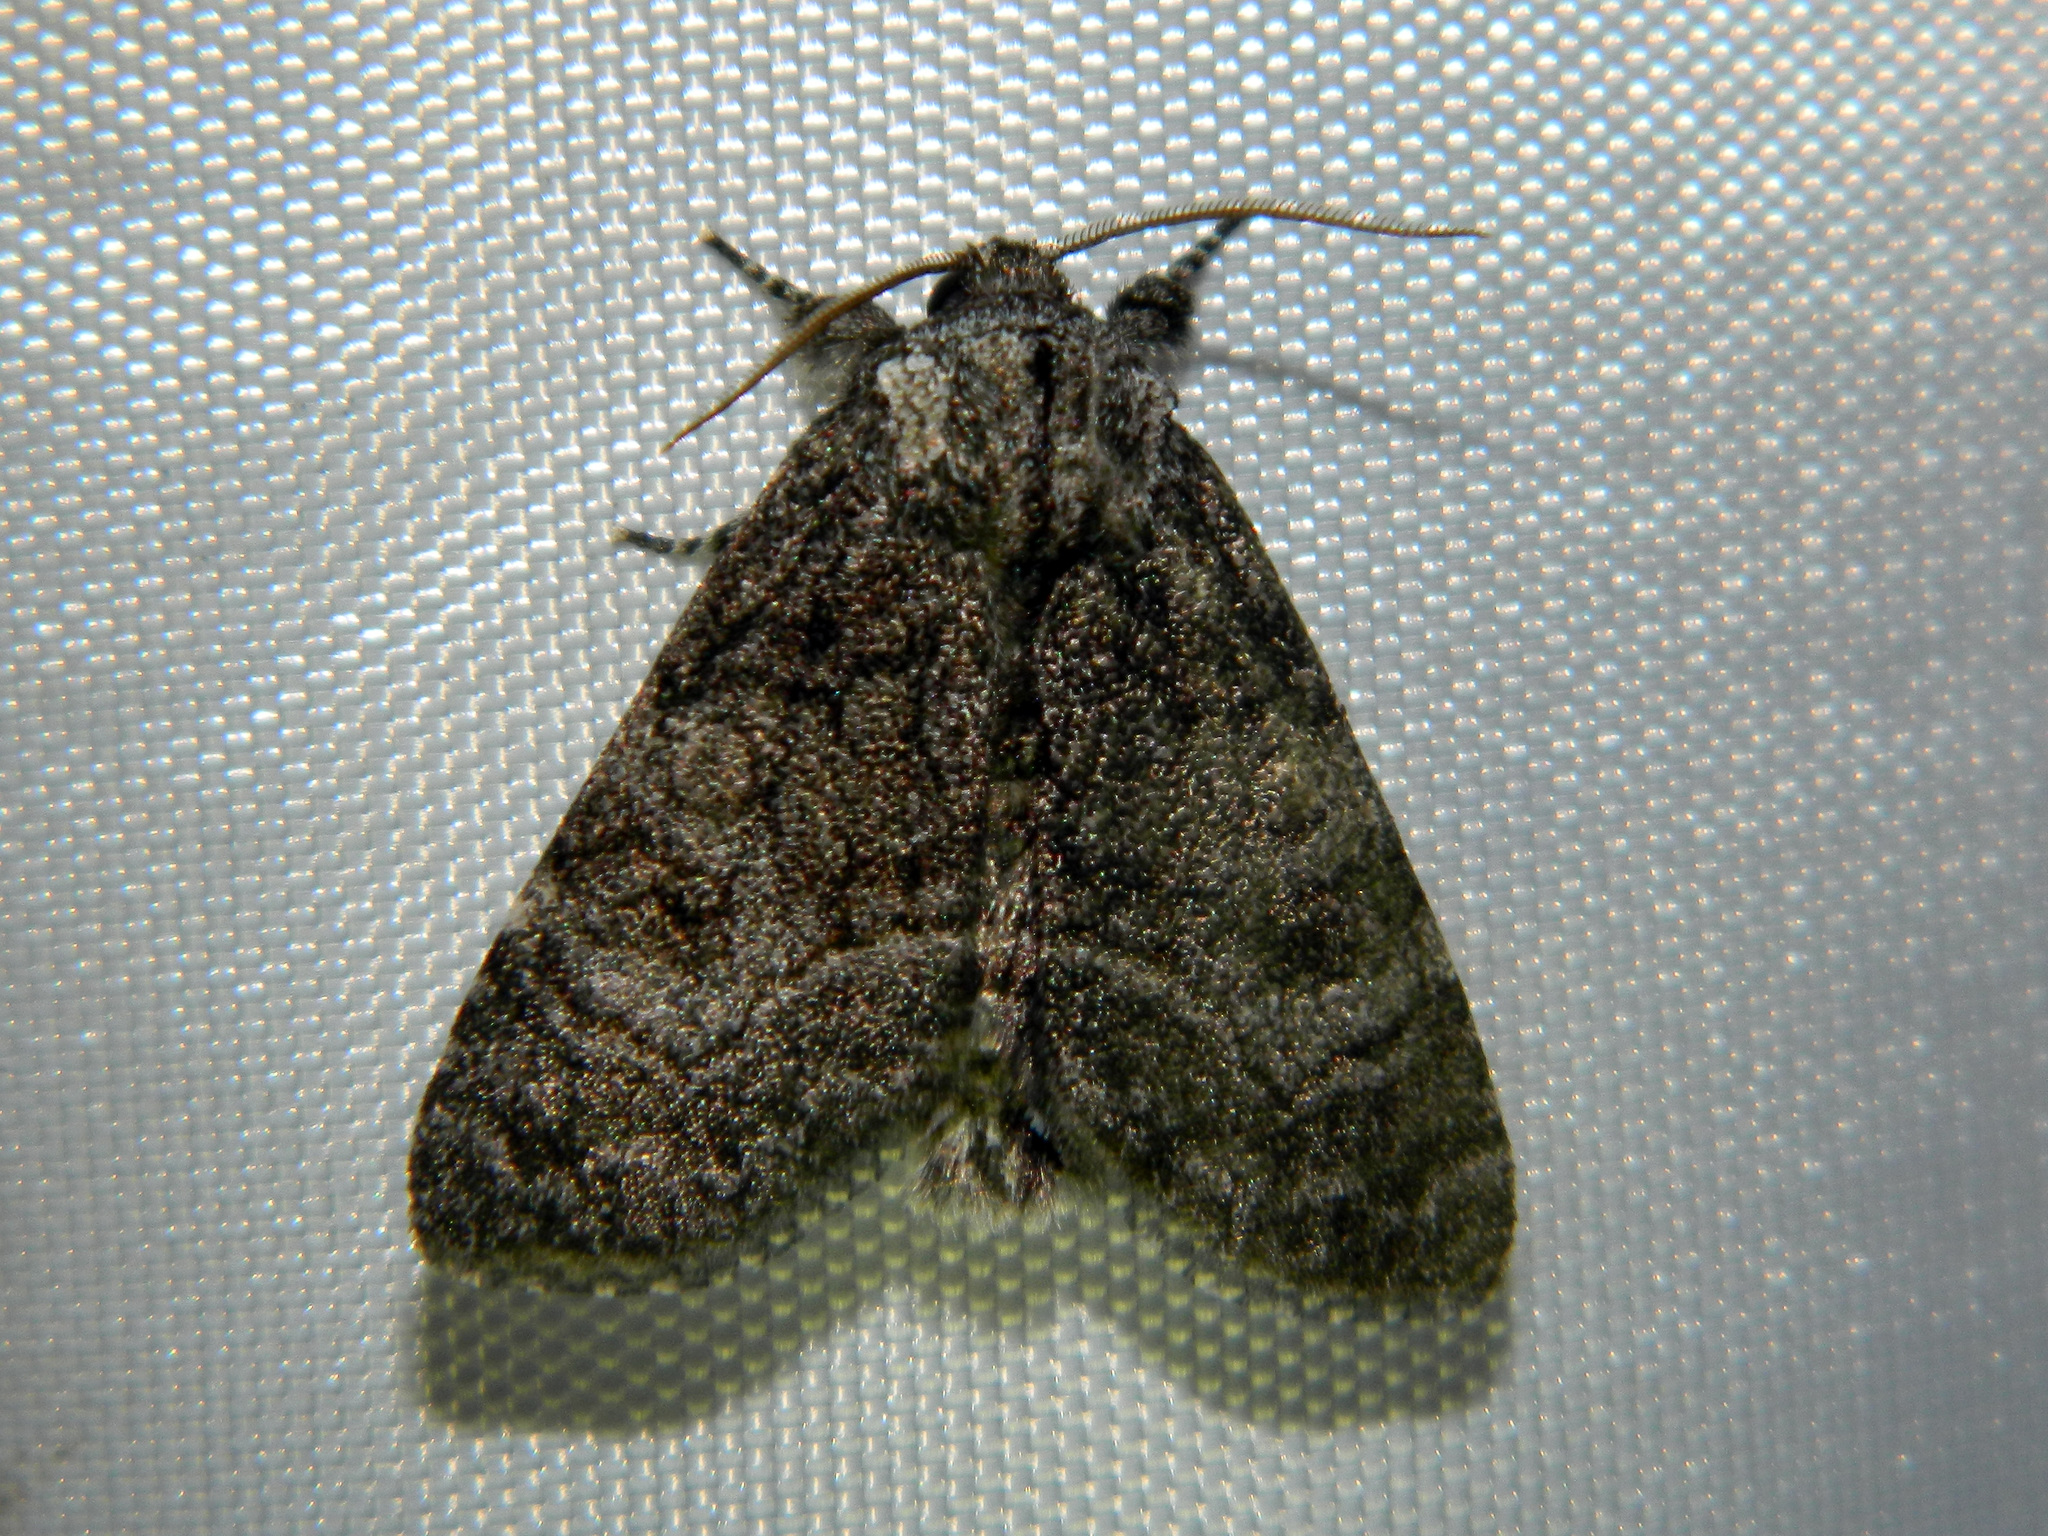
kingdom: Animalia
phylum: Arthropoda
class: Insecta
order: Lepidoptera
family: Noctuidae
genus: Raphia
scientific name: Raphia frater
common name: Brother
